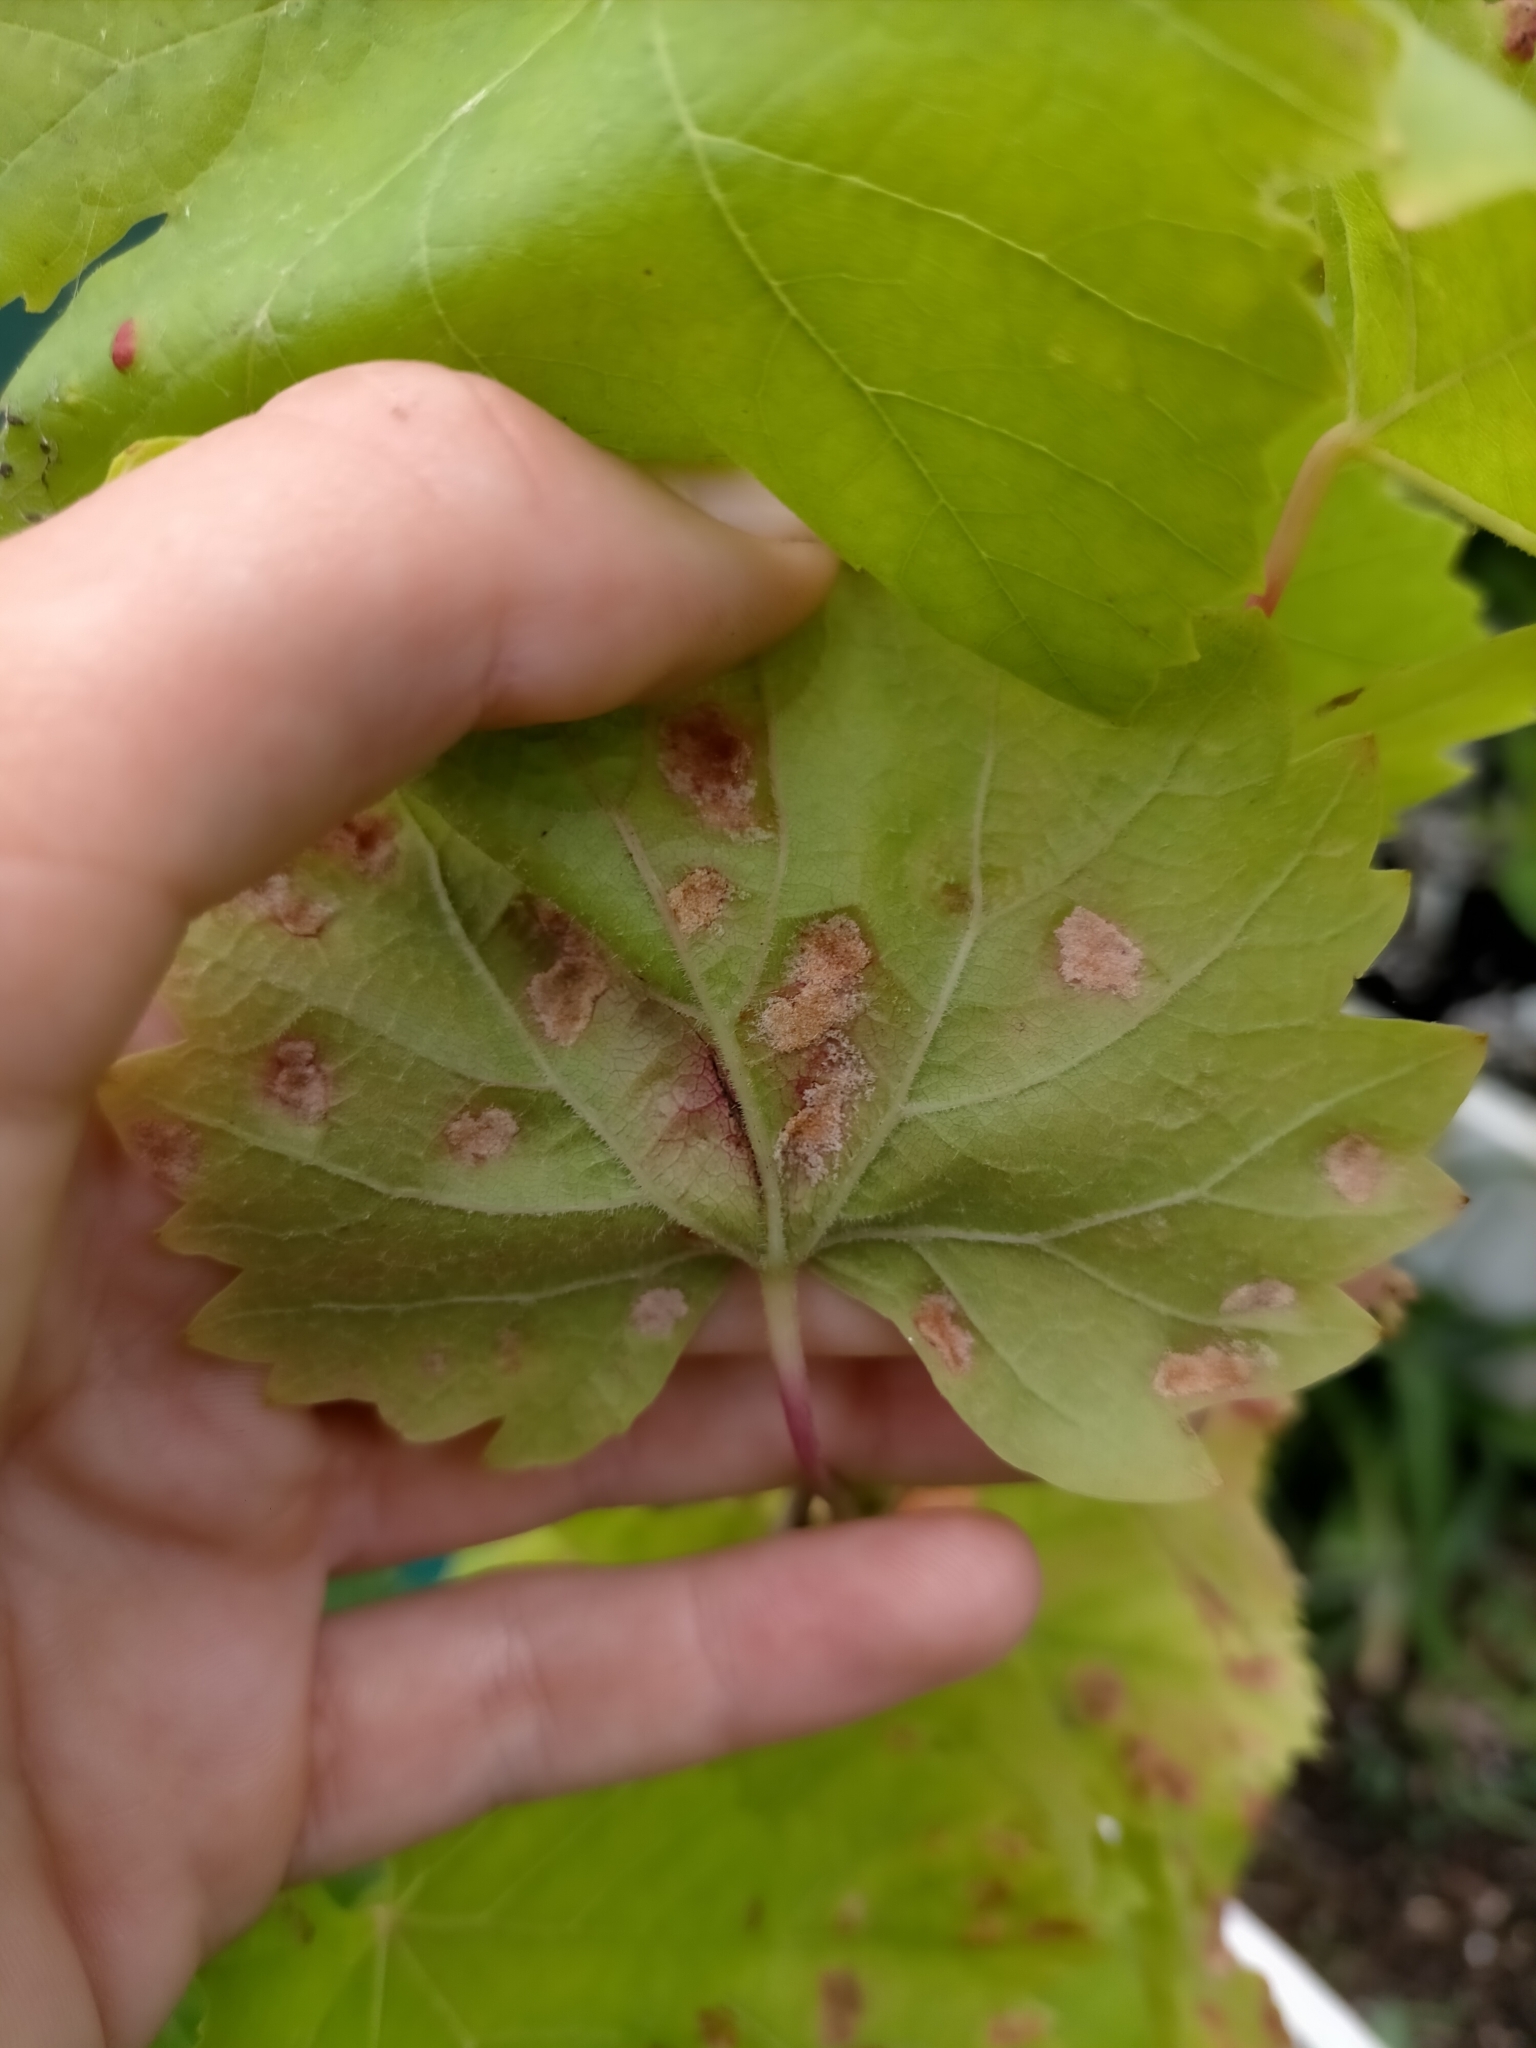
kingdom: Animalia
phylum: Arthropoda
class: Arachnida
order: Trombidiformes
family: Eriophyidae
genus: Colomerus
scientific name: Colomerus vitis
